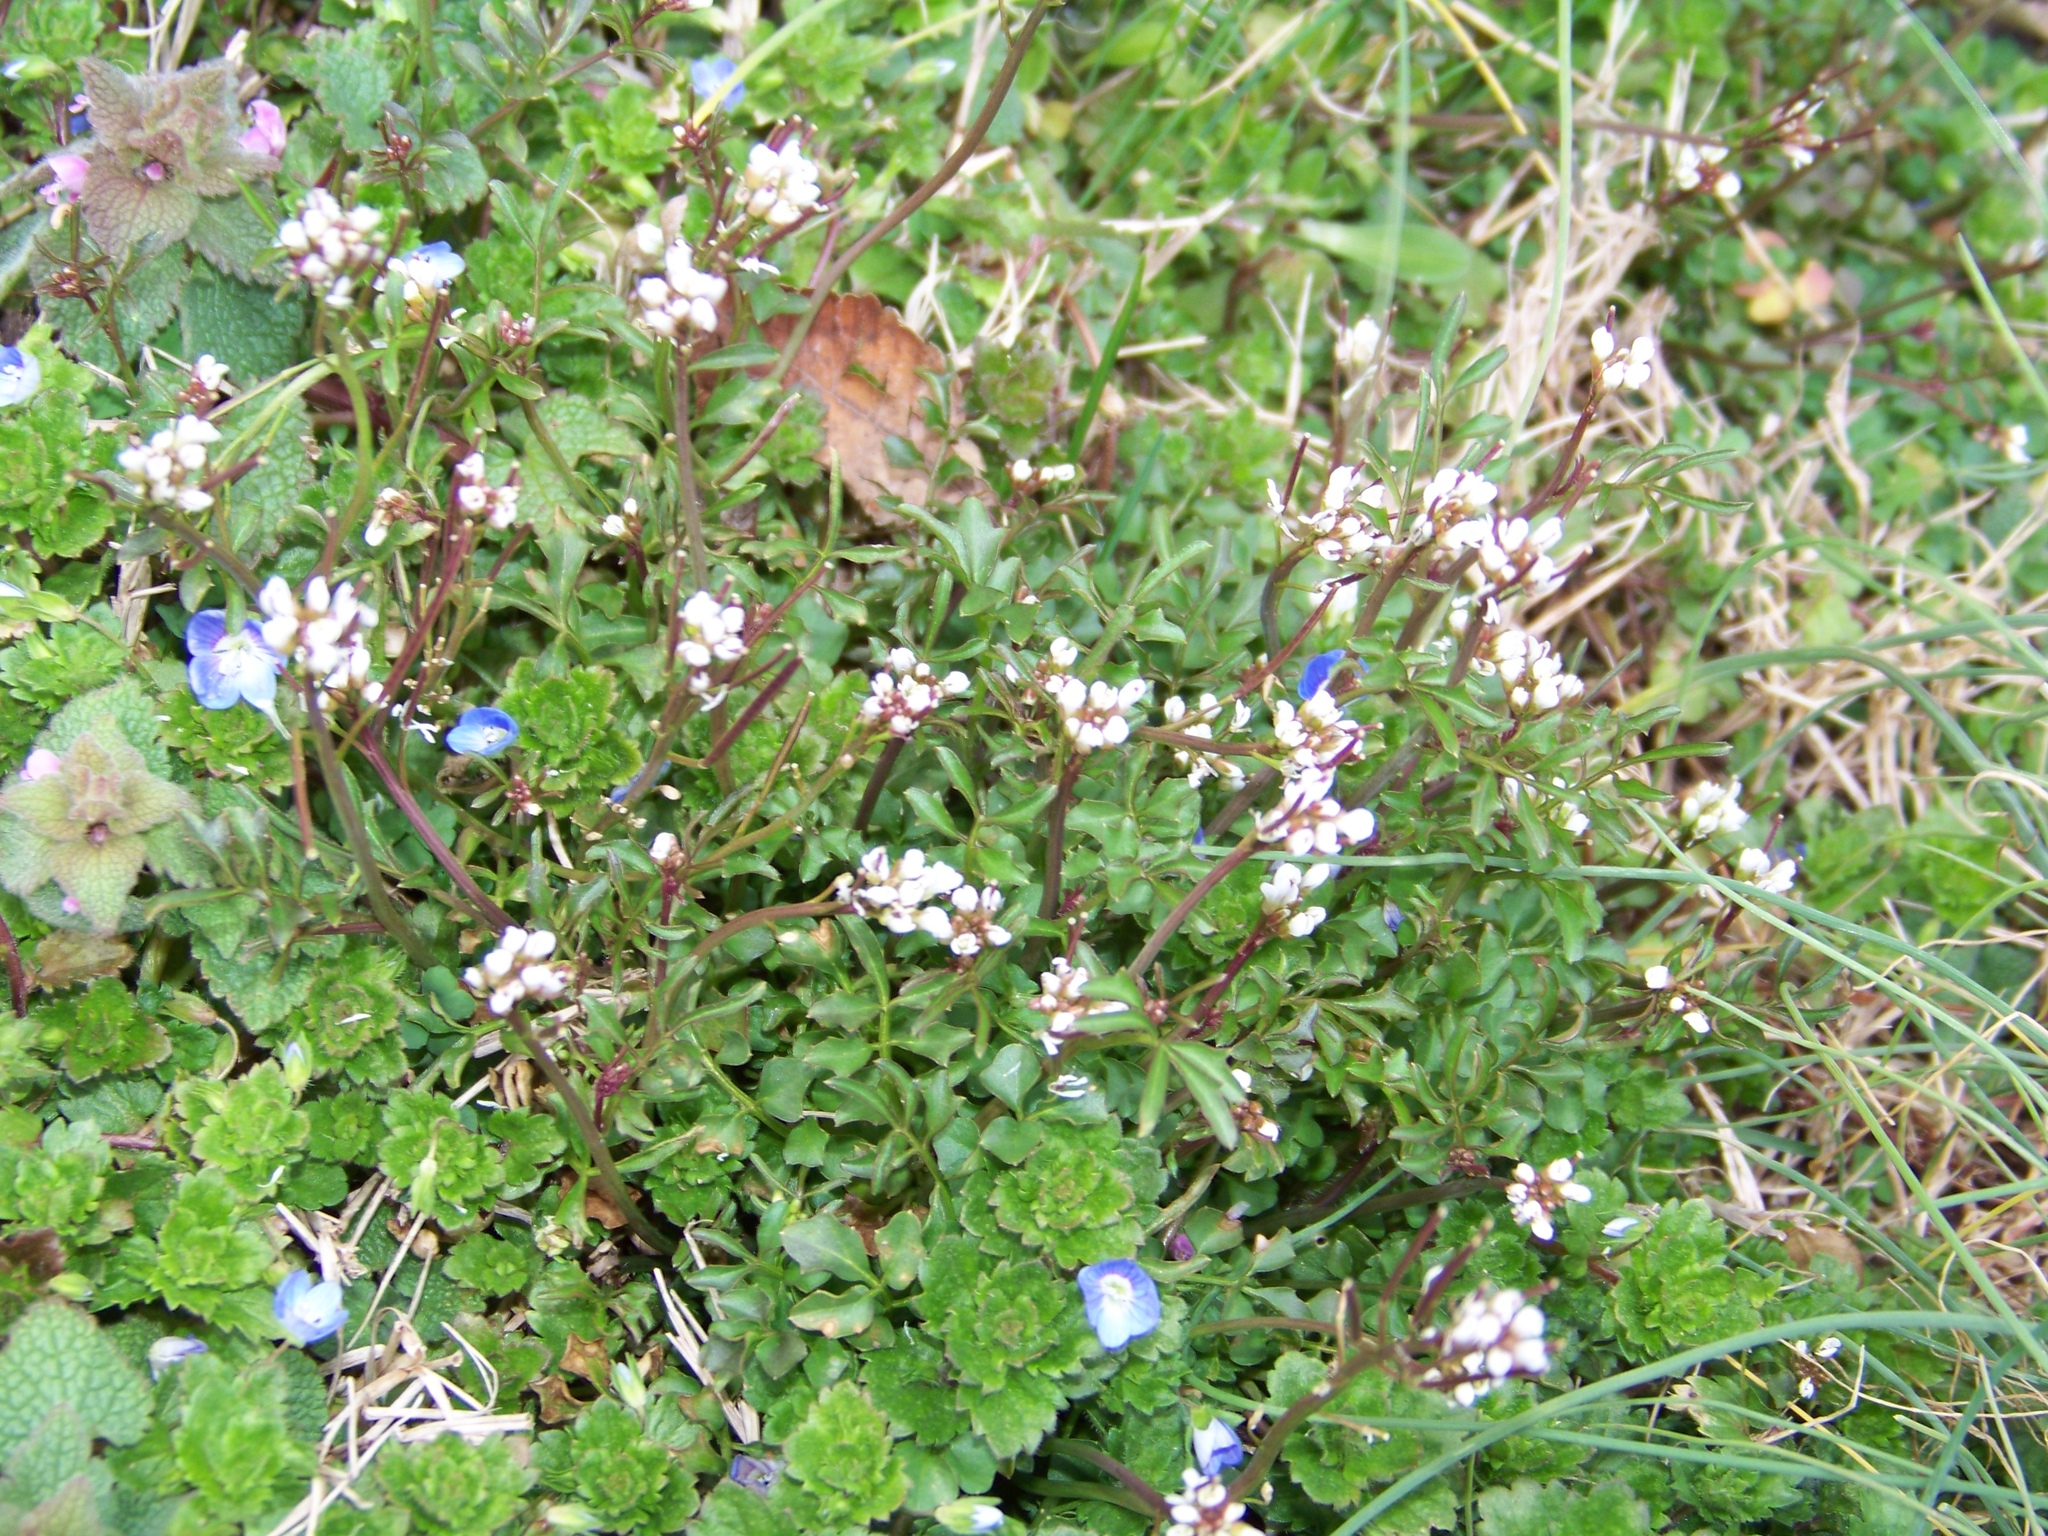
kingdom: Plantae
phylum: Tracheophyta
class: Magnoliopsida
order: Brassicales
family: Brassicaceae
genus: Cardamine
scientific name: Cardamine hirsuta
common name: Hairy bittercress
